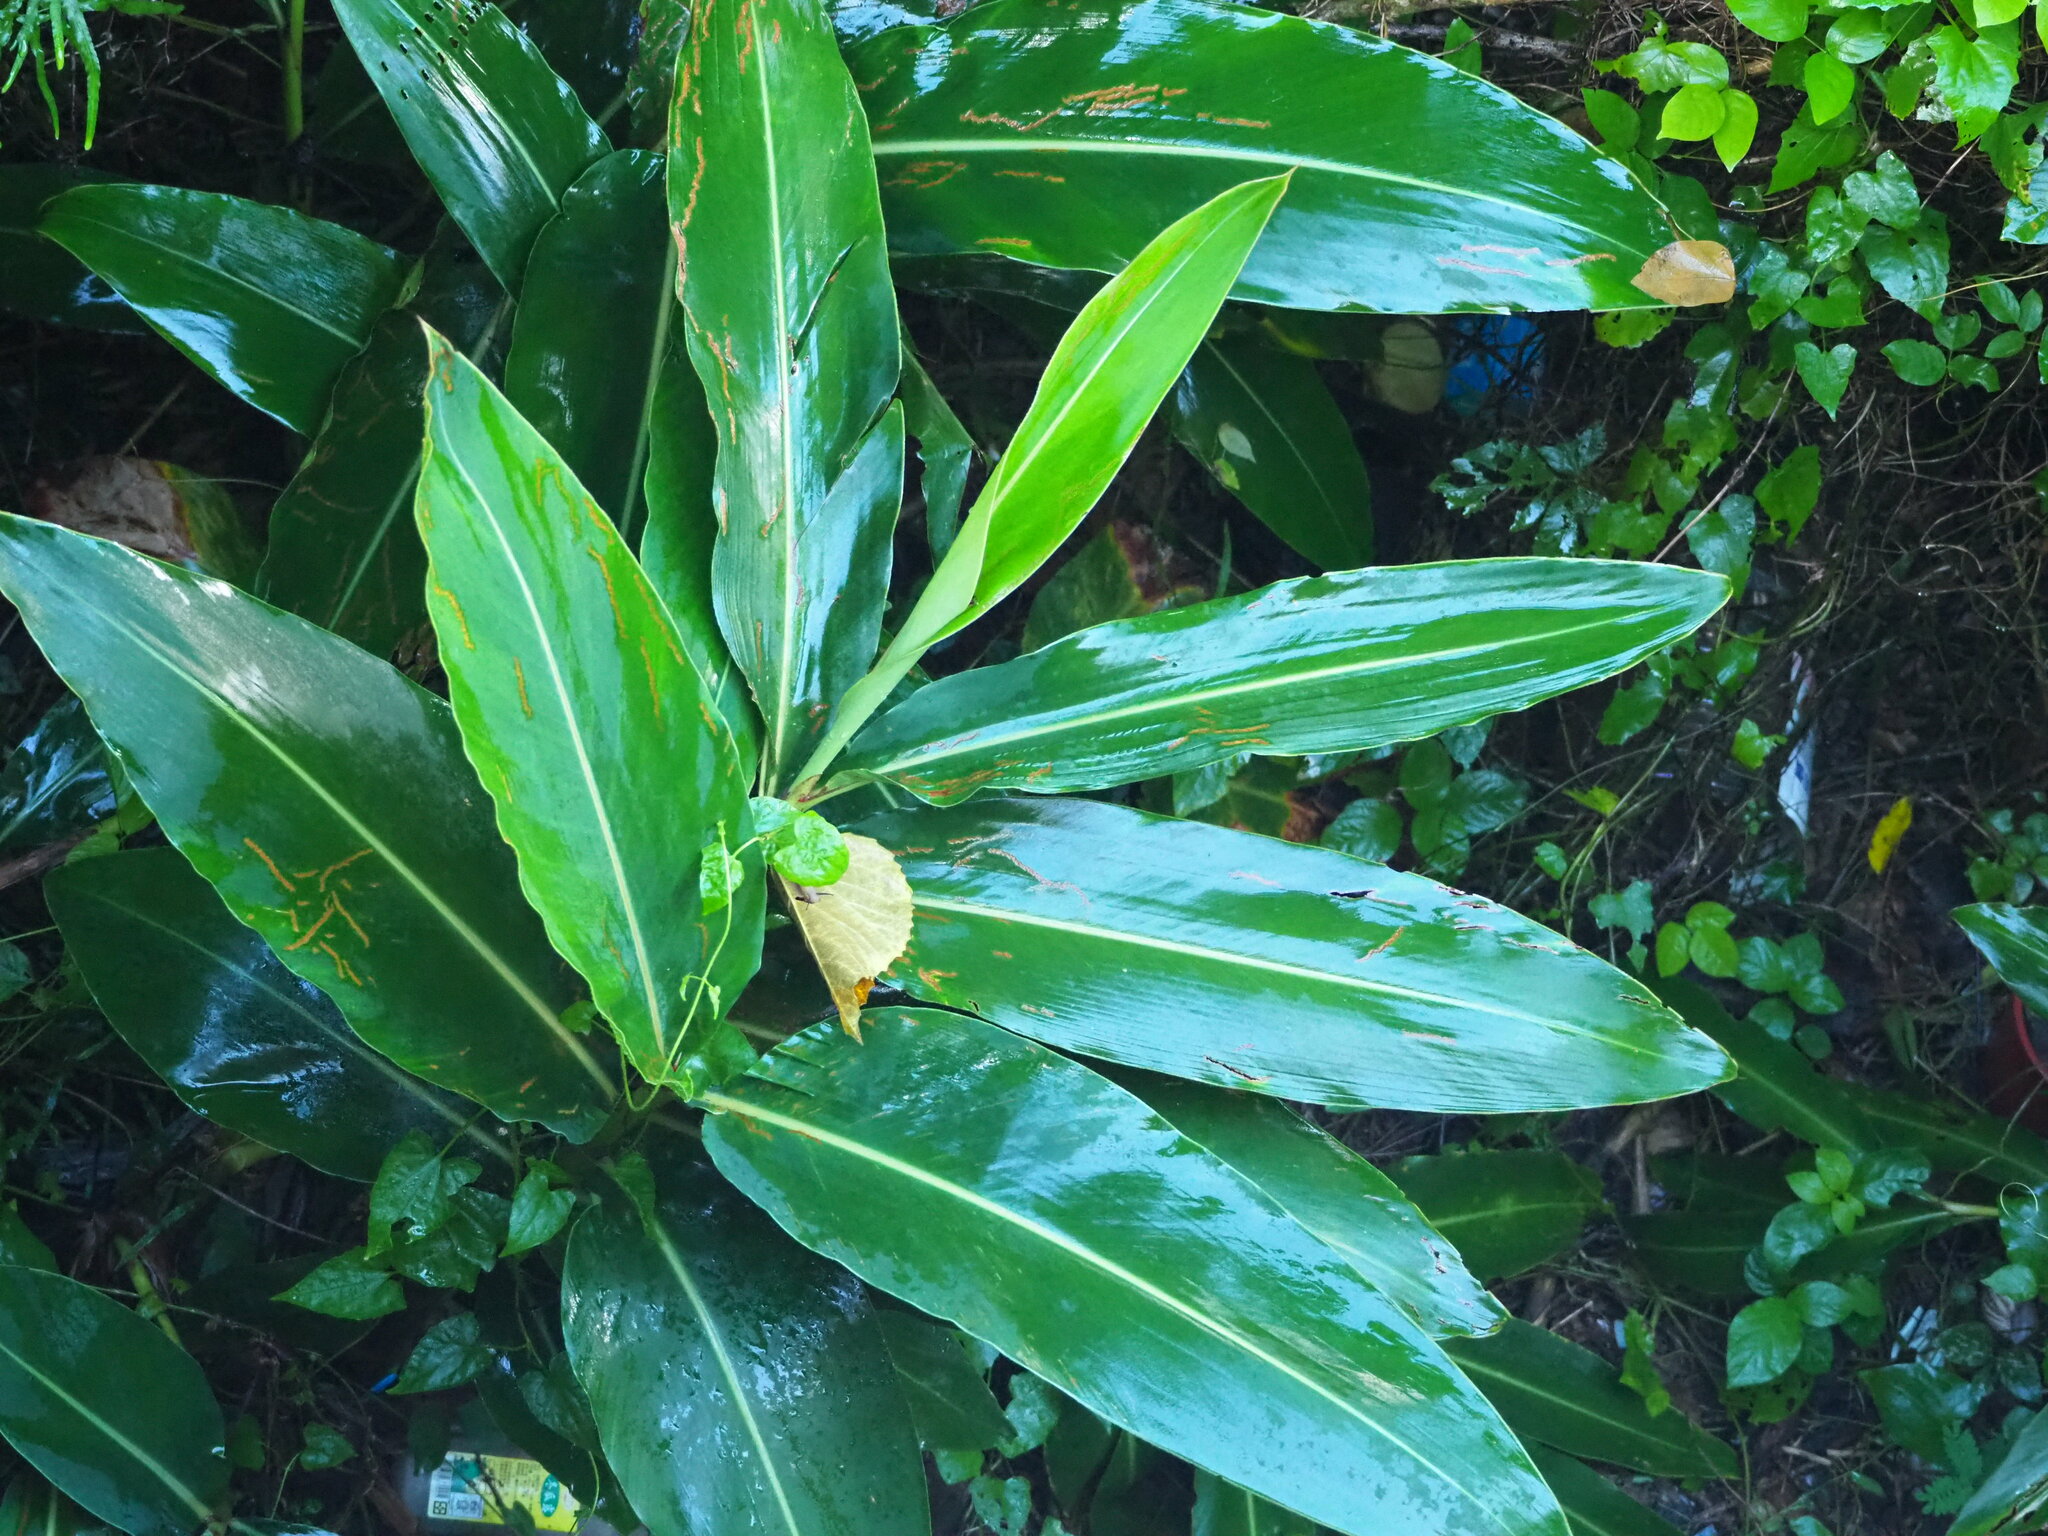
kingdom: Plantae
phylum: Tracheophyta
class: Liliopsida
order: Zingiberales
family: Zingiberaceae
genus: Alpinia
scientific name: Alpinia koshunensis
